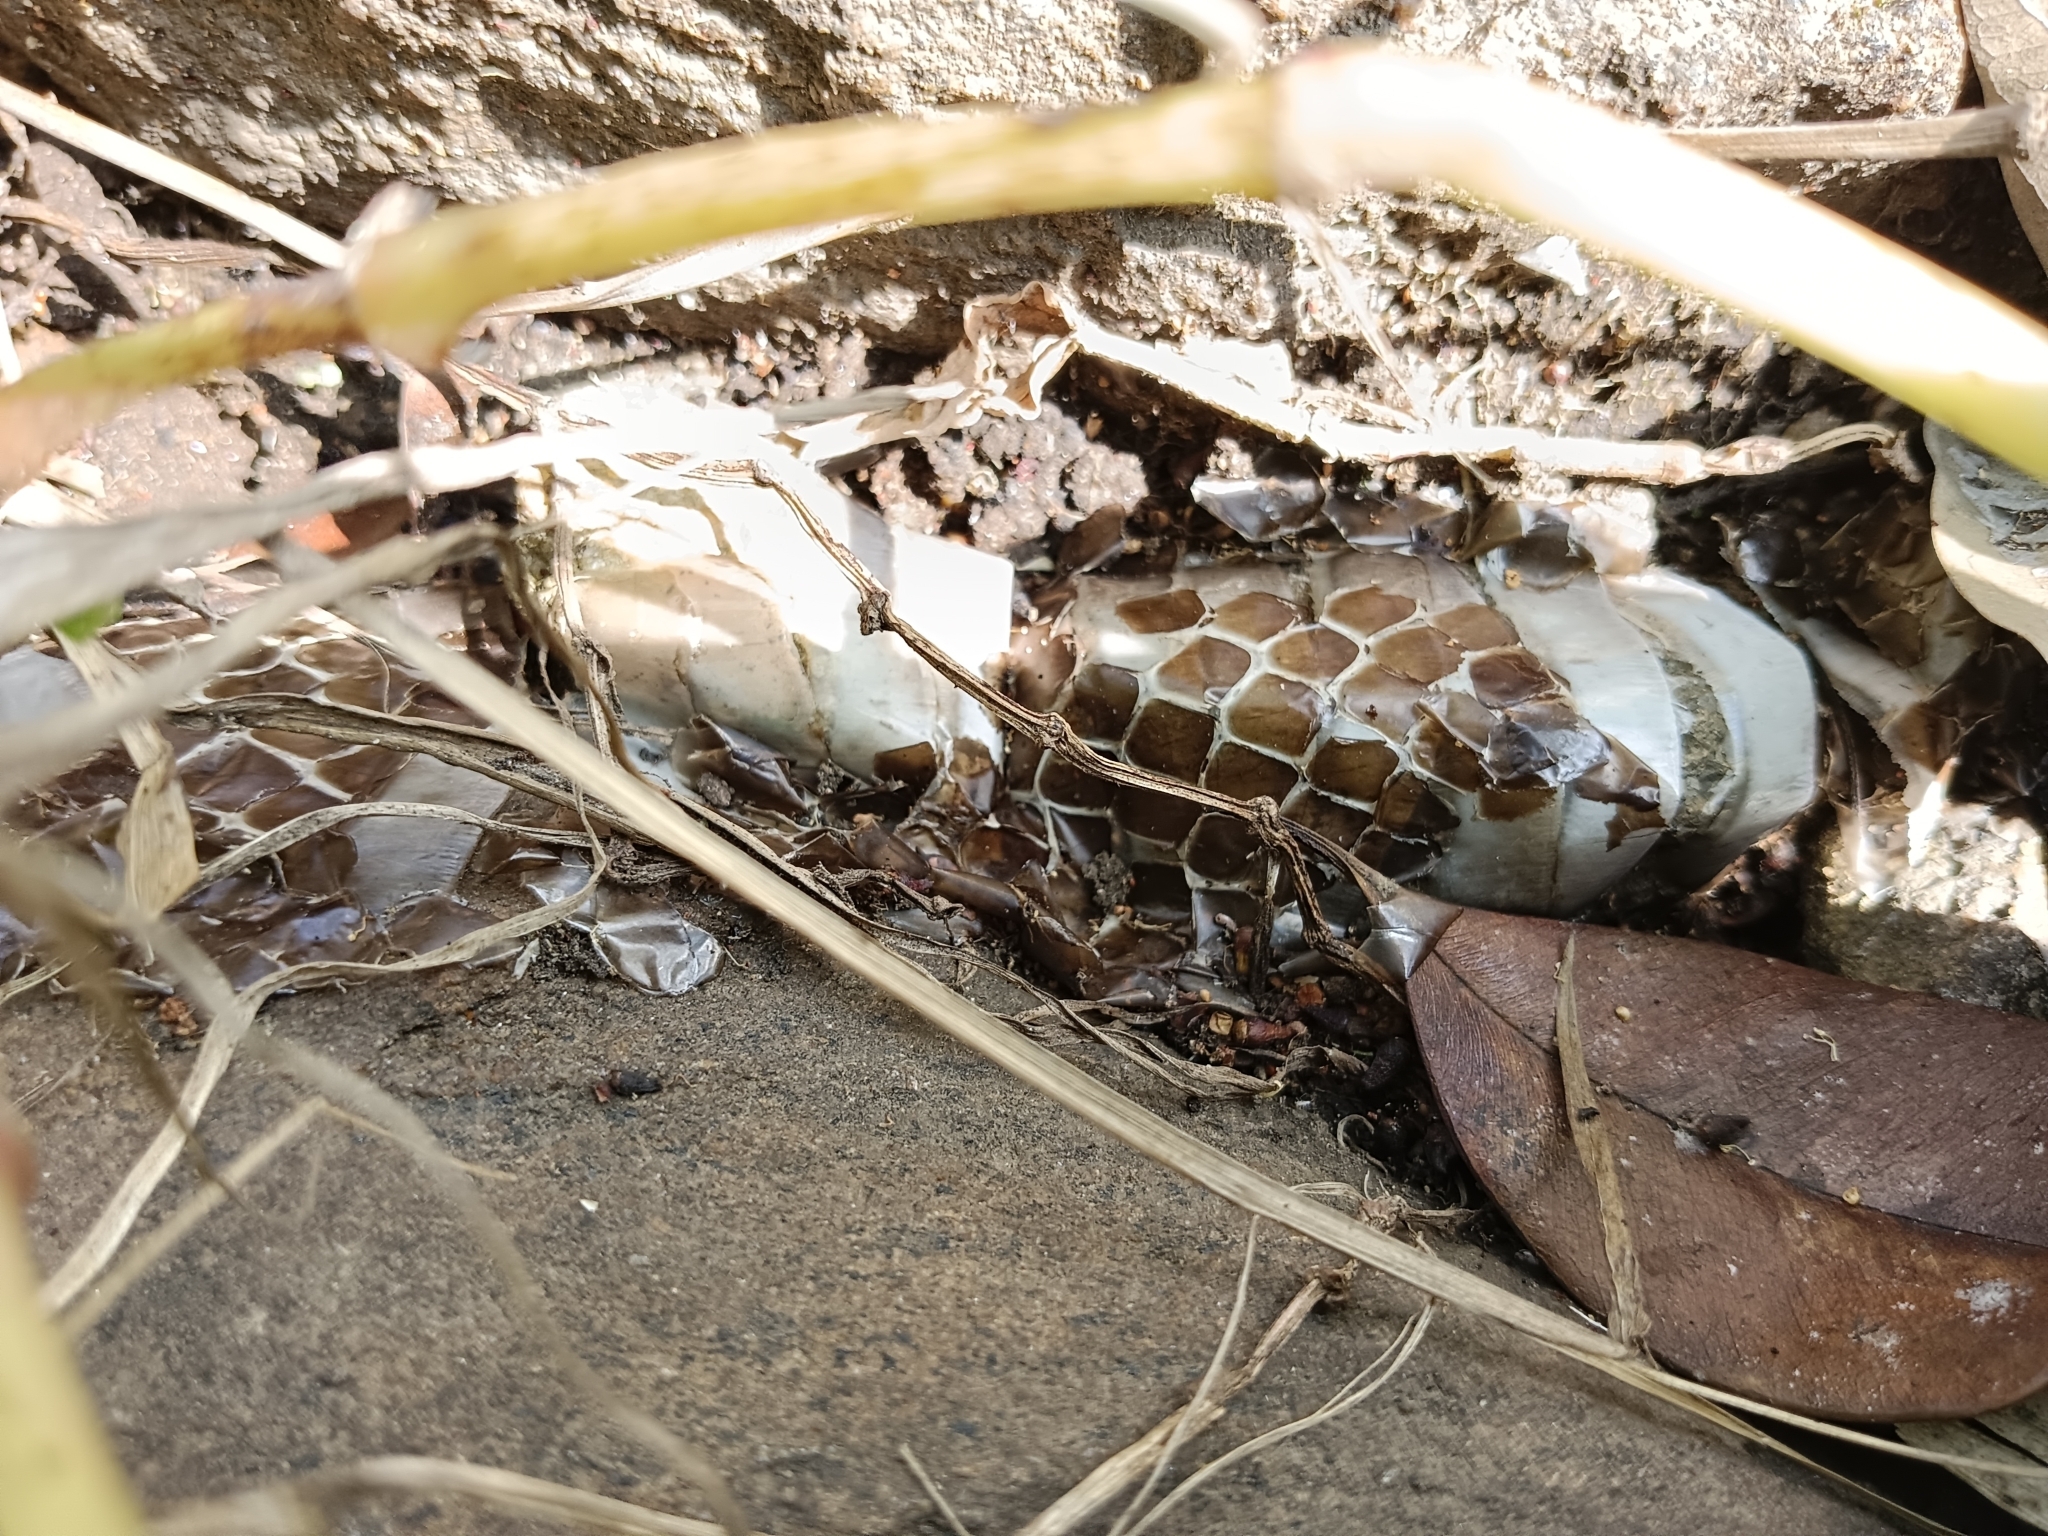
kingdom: Animalia
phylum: Chordata
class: Squamata
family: Colubridae
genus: Ptyas
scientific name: Ptyas mucosa
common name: Oriental ratsnake
